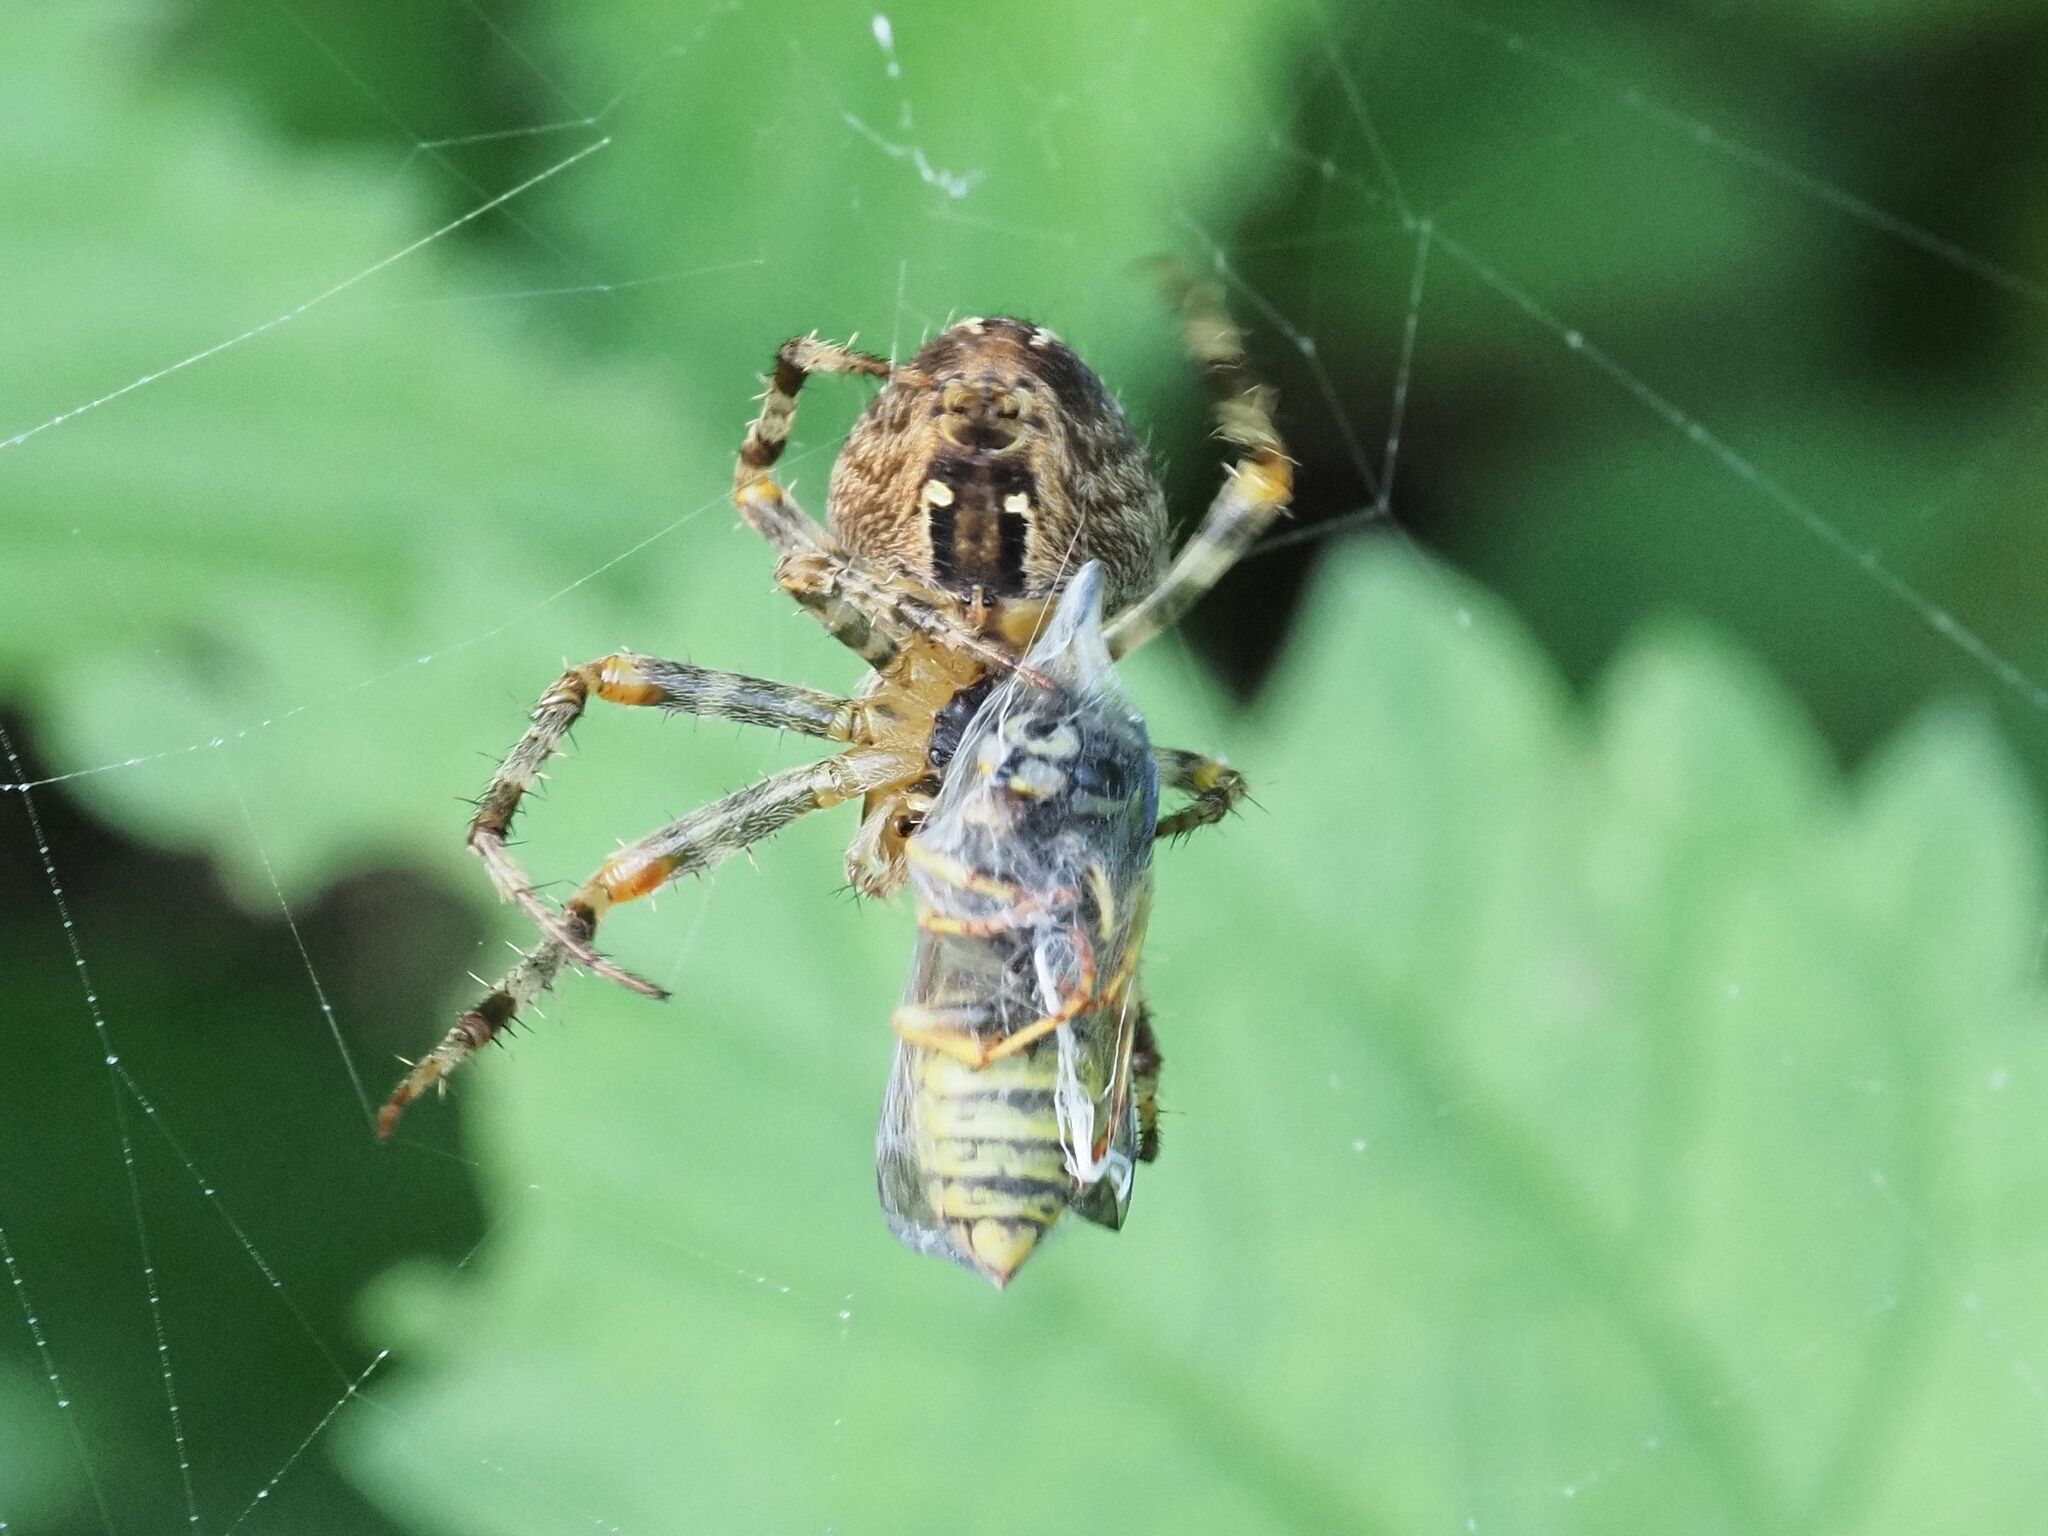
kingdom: Animalia
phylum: Arthropoda
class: Arachnida
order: Araneae
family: Araneidae
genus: Araneus
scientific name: Araneus diadematus
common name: Cross orbweaver
